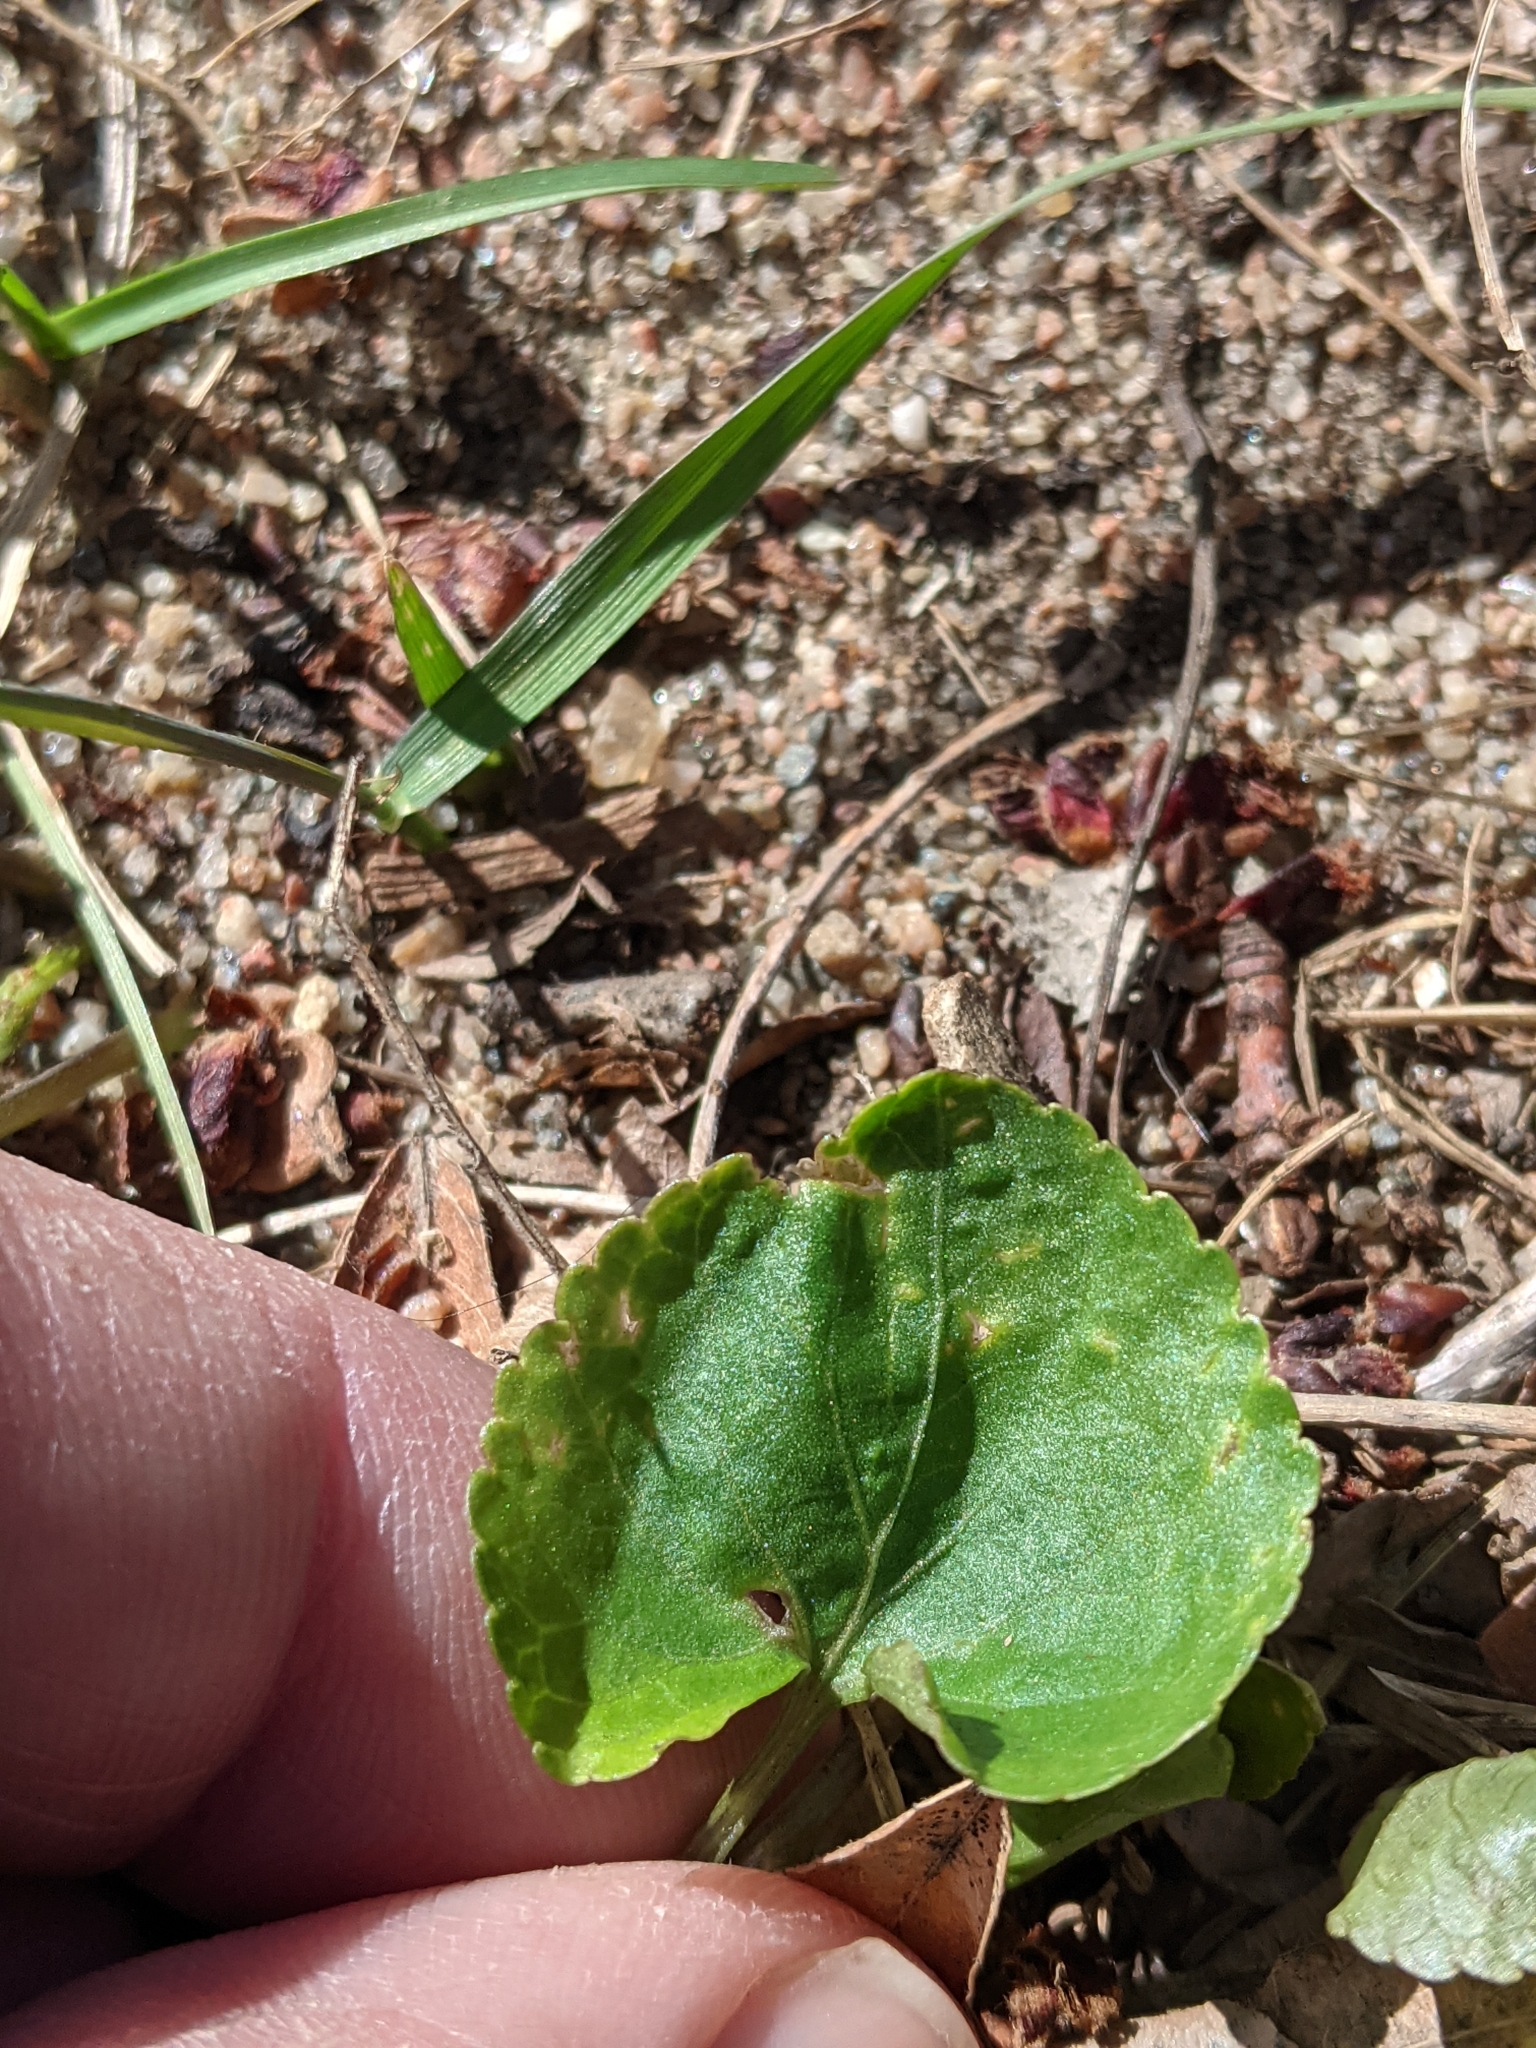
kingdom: Plantae
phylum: Tracheophyta
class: Magnoliopsida
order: Malpighiales
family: Violaceae
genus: Viola
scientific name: Viola
